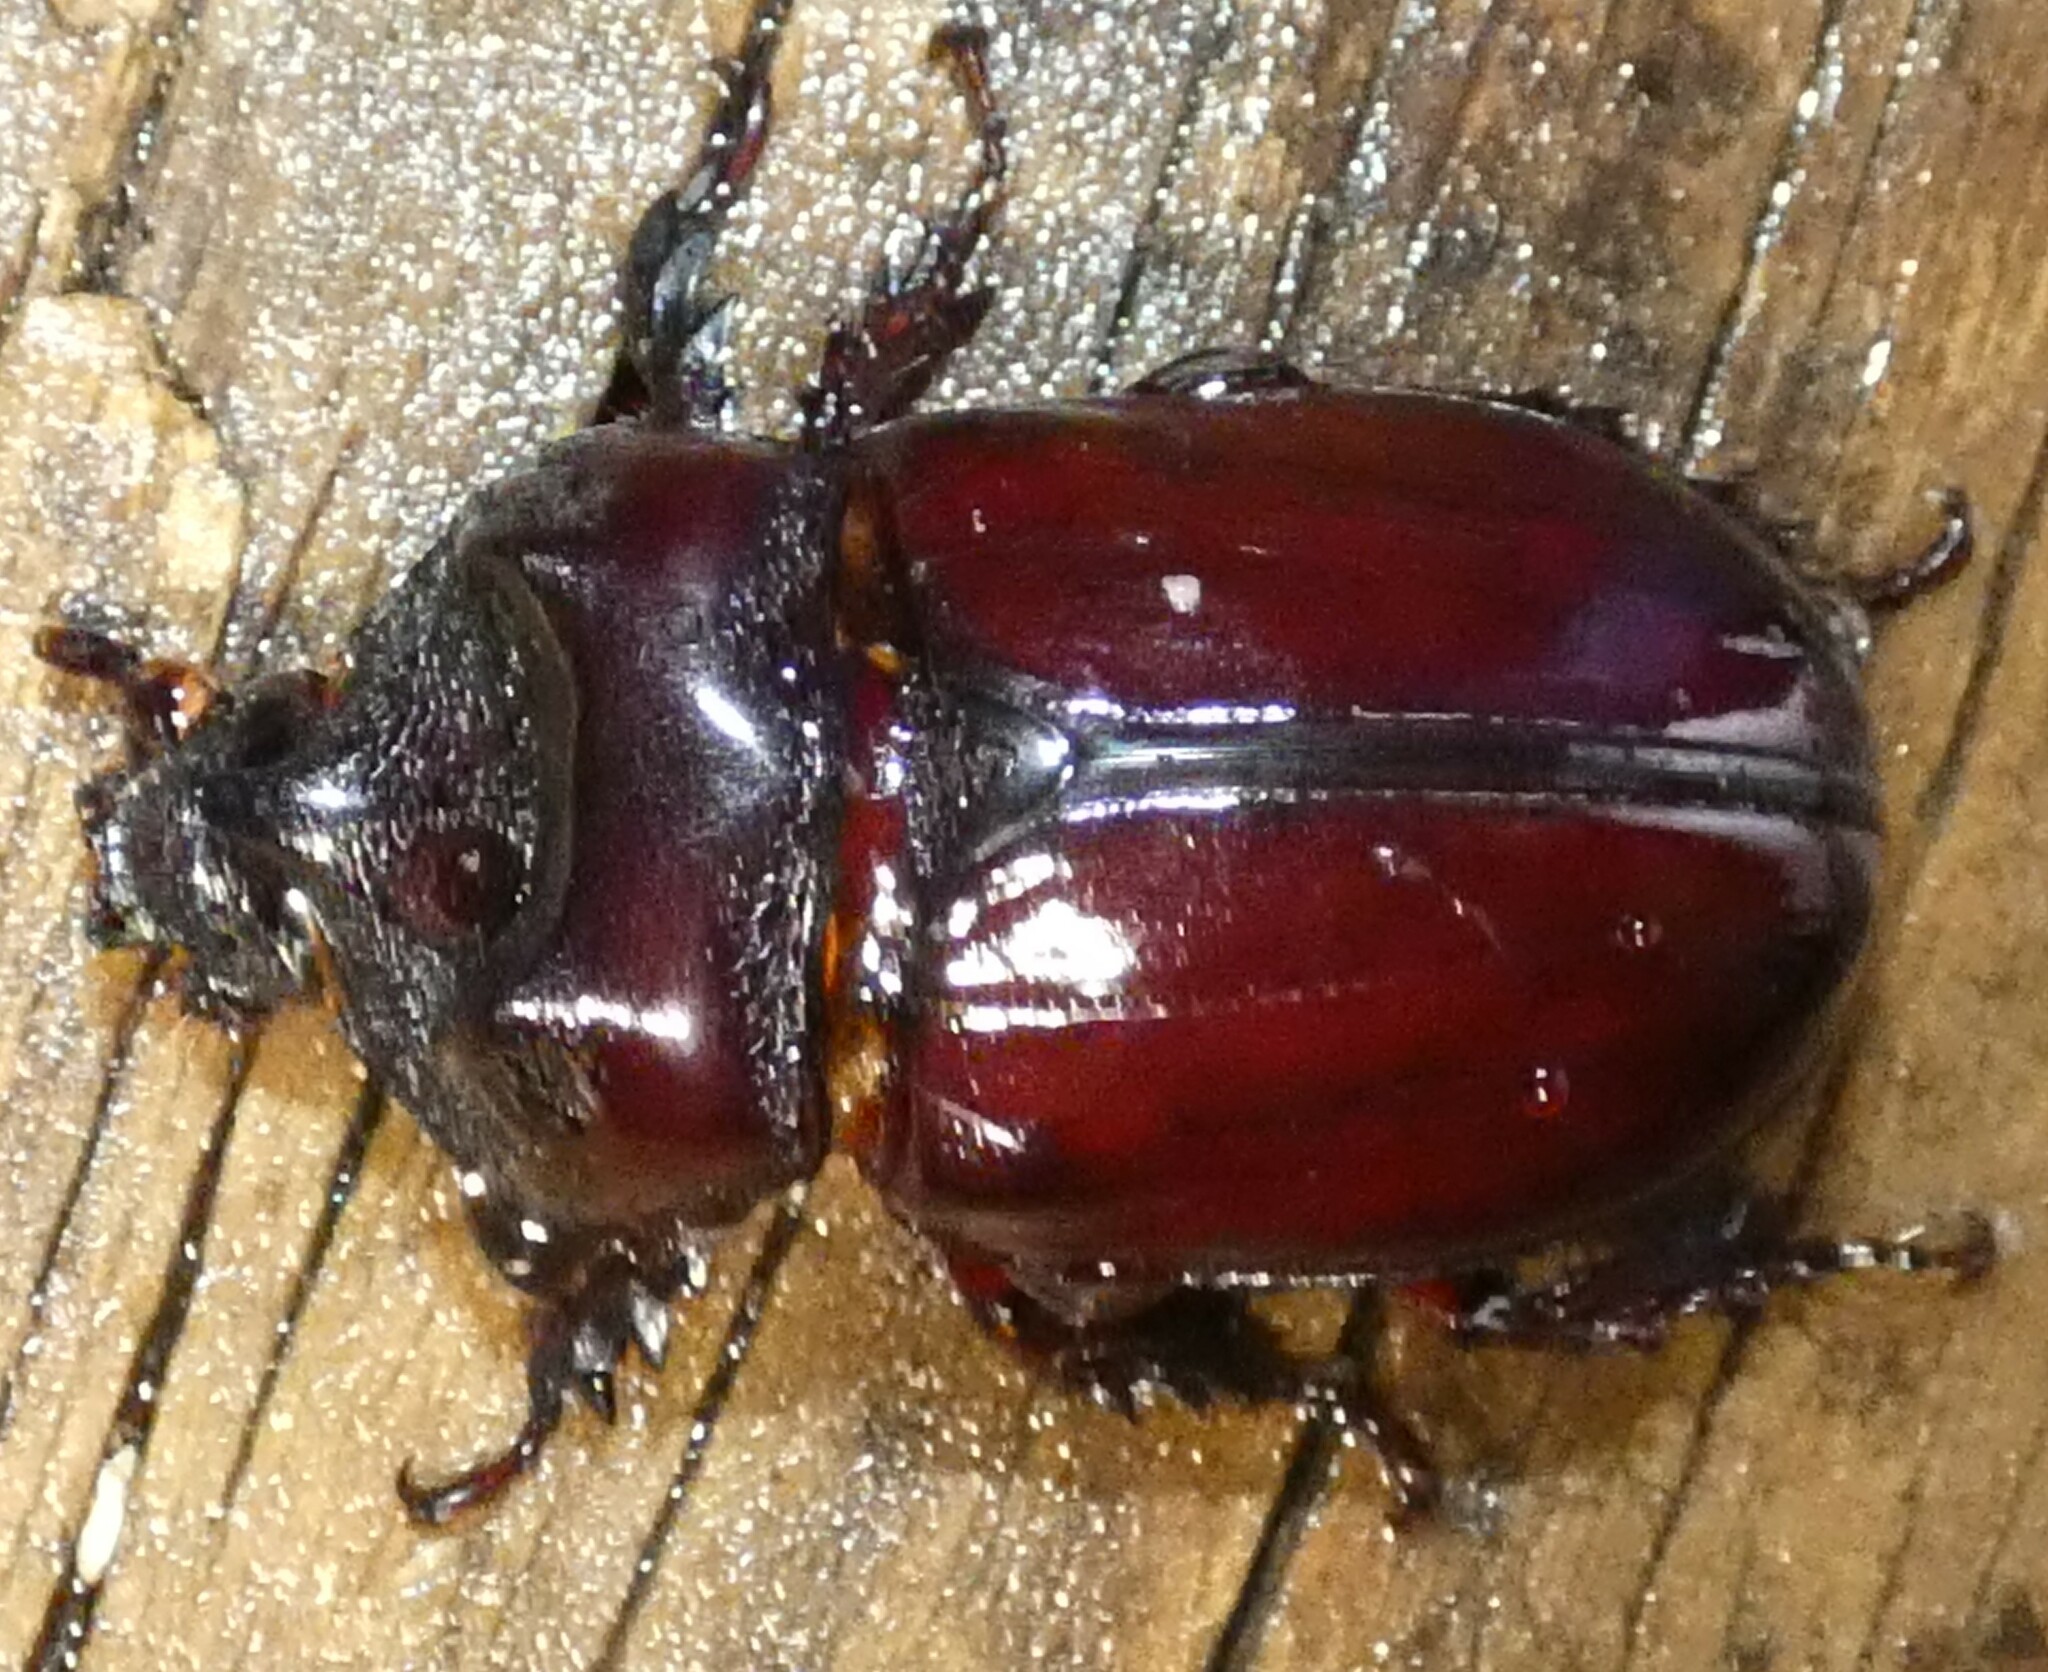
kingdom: Animalia
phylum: Arthropoda
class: Insecta
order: Coleoptera
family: Scarabaeidae
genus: Strategus
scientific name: Strategus aloeus
